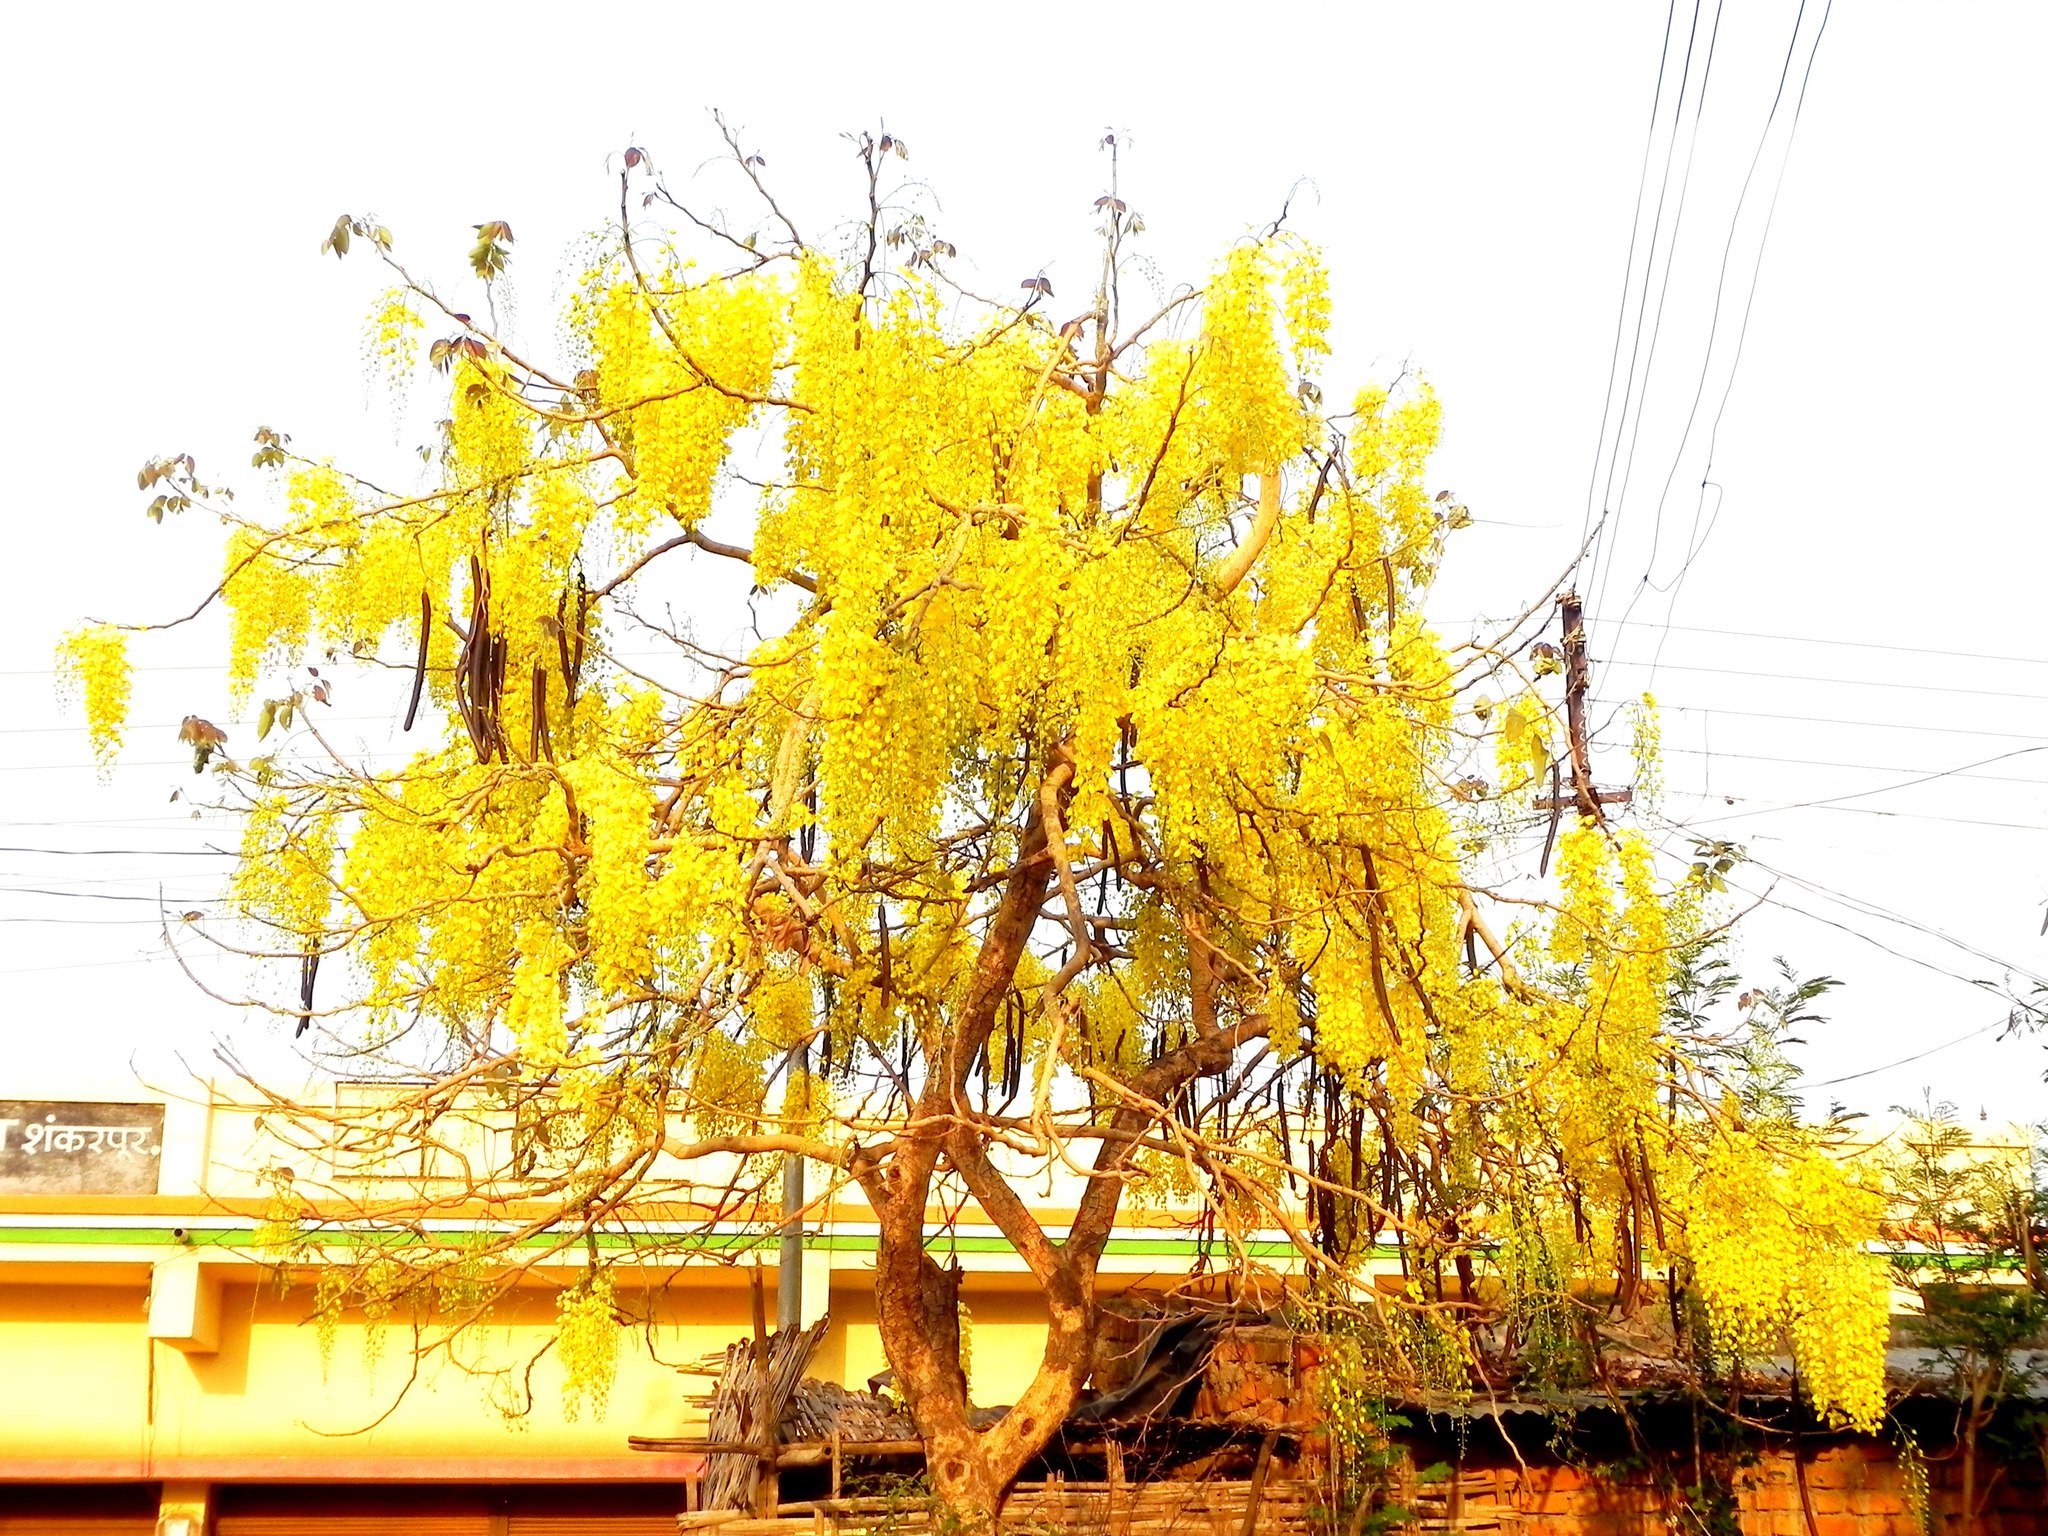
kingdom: Plantae
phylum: Tracheophyta
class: Magnoliopsida
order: Fabales
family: Fabaceae
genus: Cassia
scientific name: Cassia fistula
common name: Golden shower
